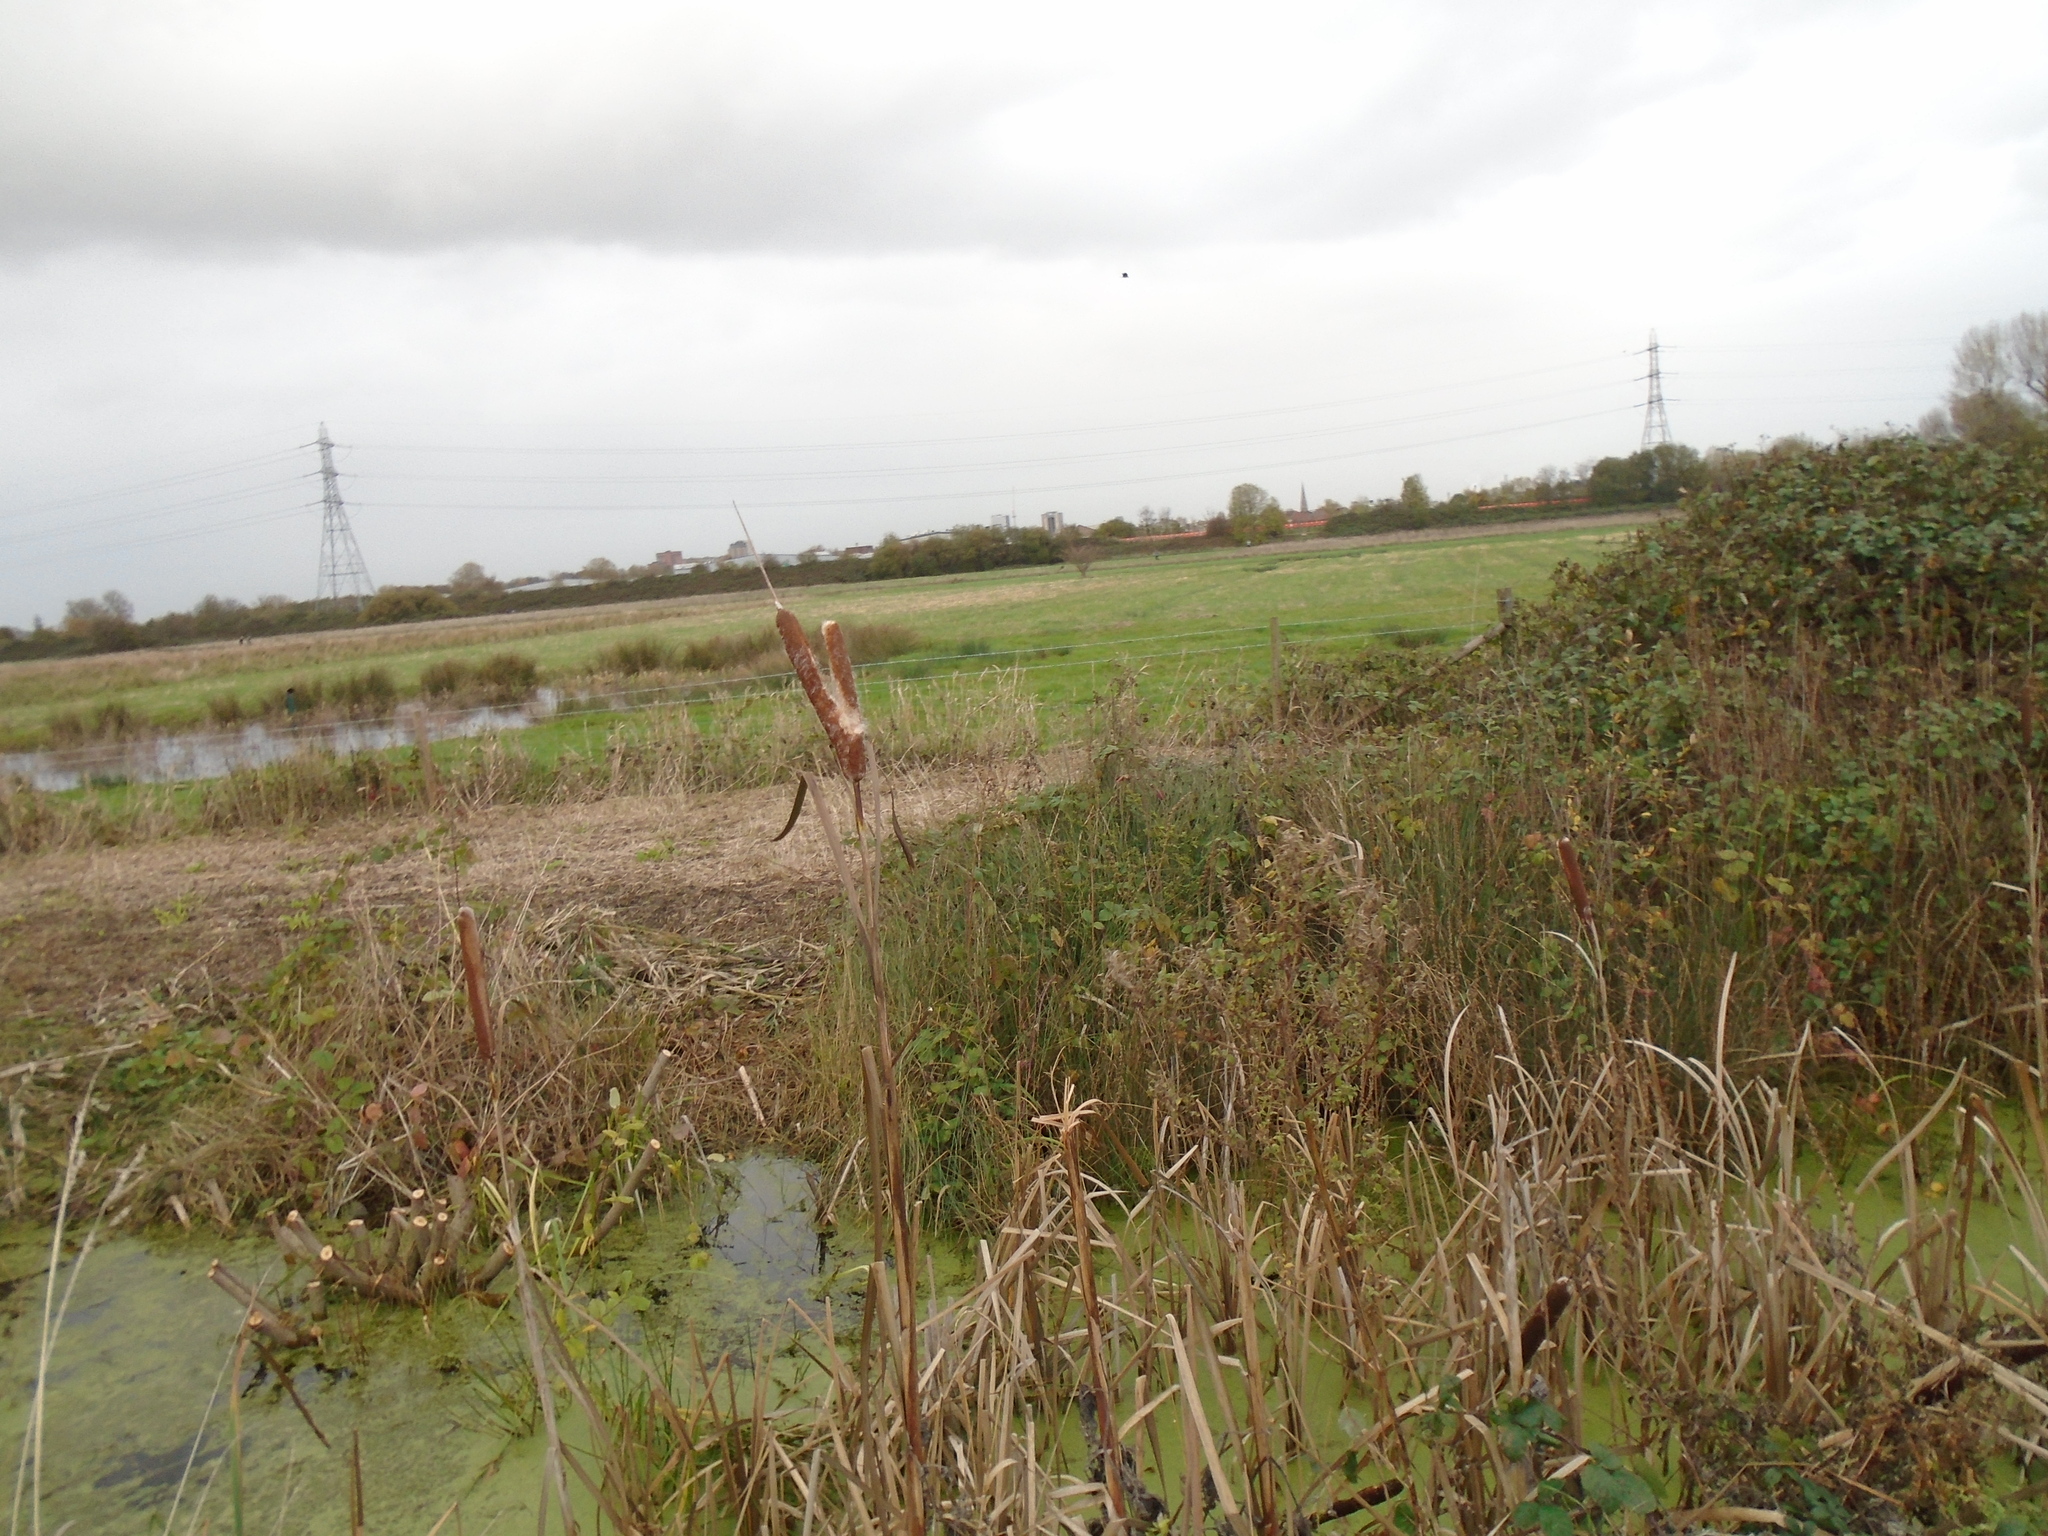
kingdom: Plantae
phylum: Tracheophyta
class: Liliopsida
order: Poales
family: Typhaceae
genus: Typha
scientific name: Typha latifolia
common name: Broadleaf cattail
